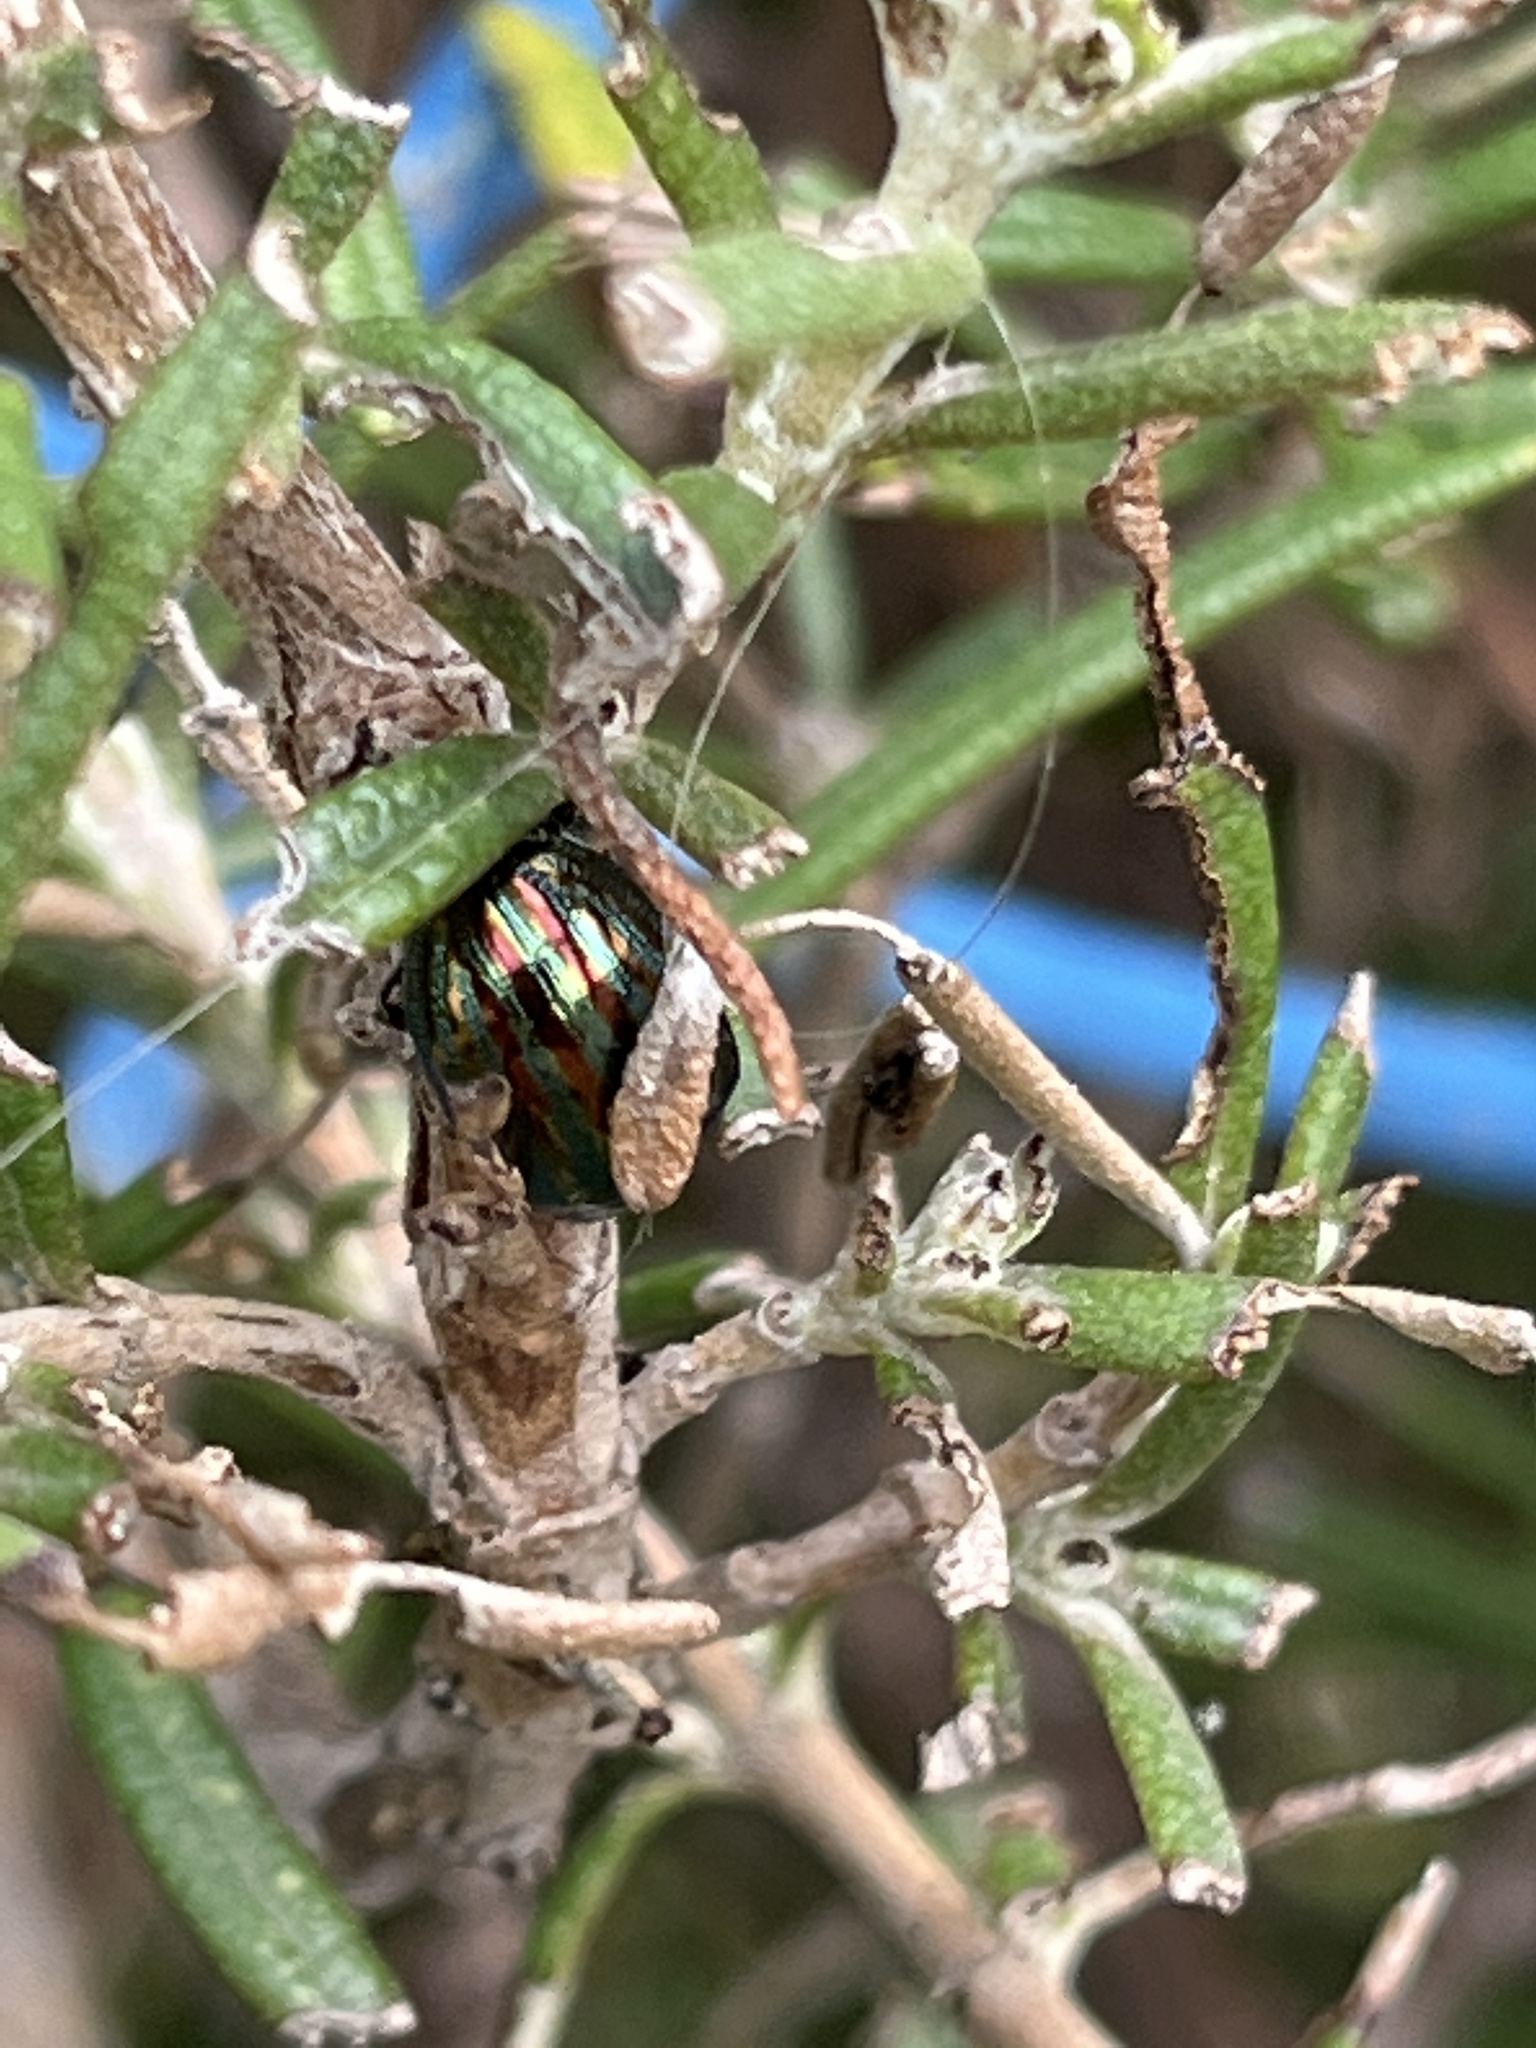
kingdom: Animalia
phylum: Arthropoda
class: Insecta
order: Coleoptera
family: Chrysomelidae
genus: Chrysolina
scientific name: Chrysolina americana
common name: Rosemary beetle
